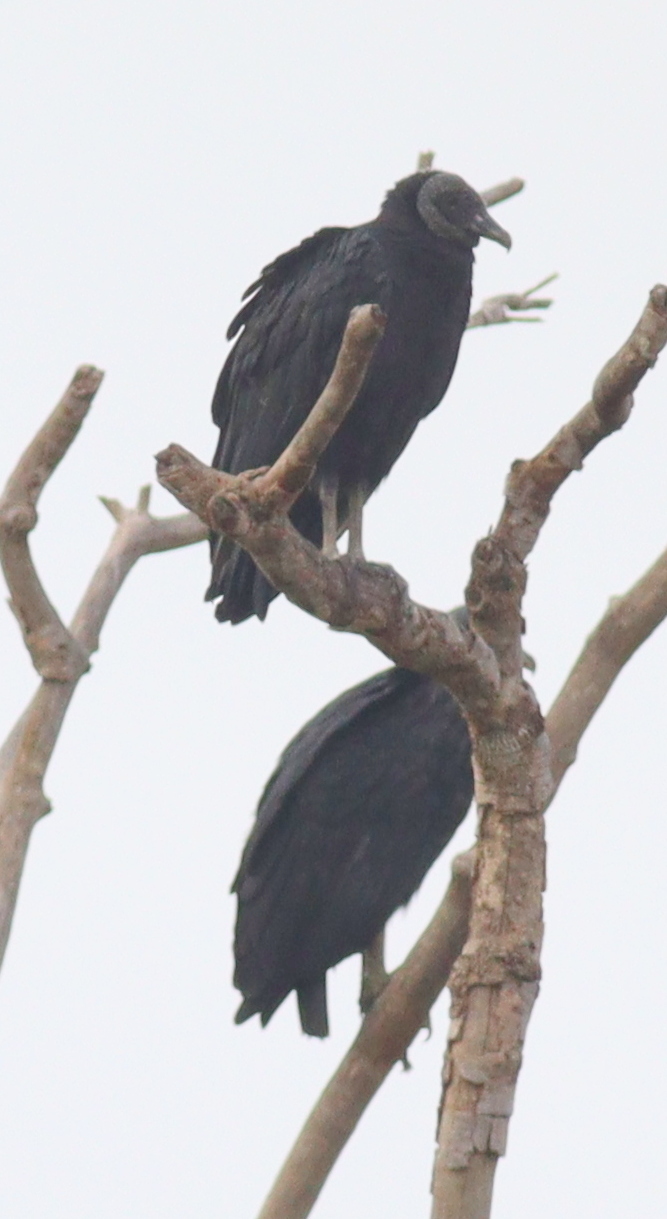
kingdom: Animalia
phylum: Chordata
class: Aves
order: Accipitriformes
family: Cathartidae
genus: Coragyps
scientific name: Coragyps atratus
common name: Black vulture
